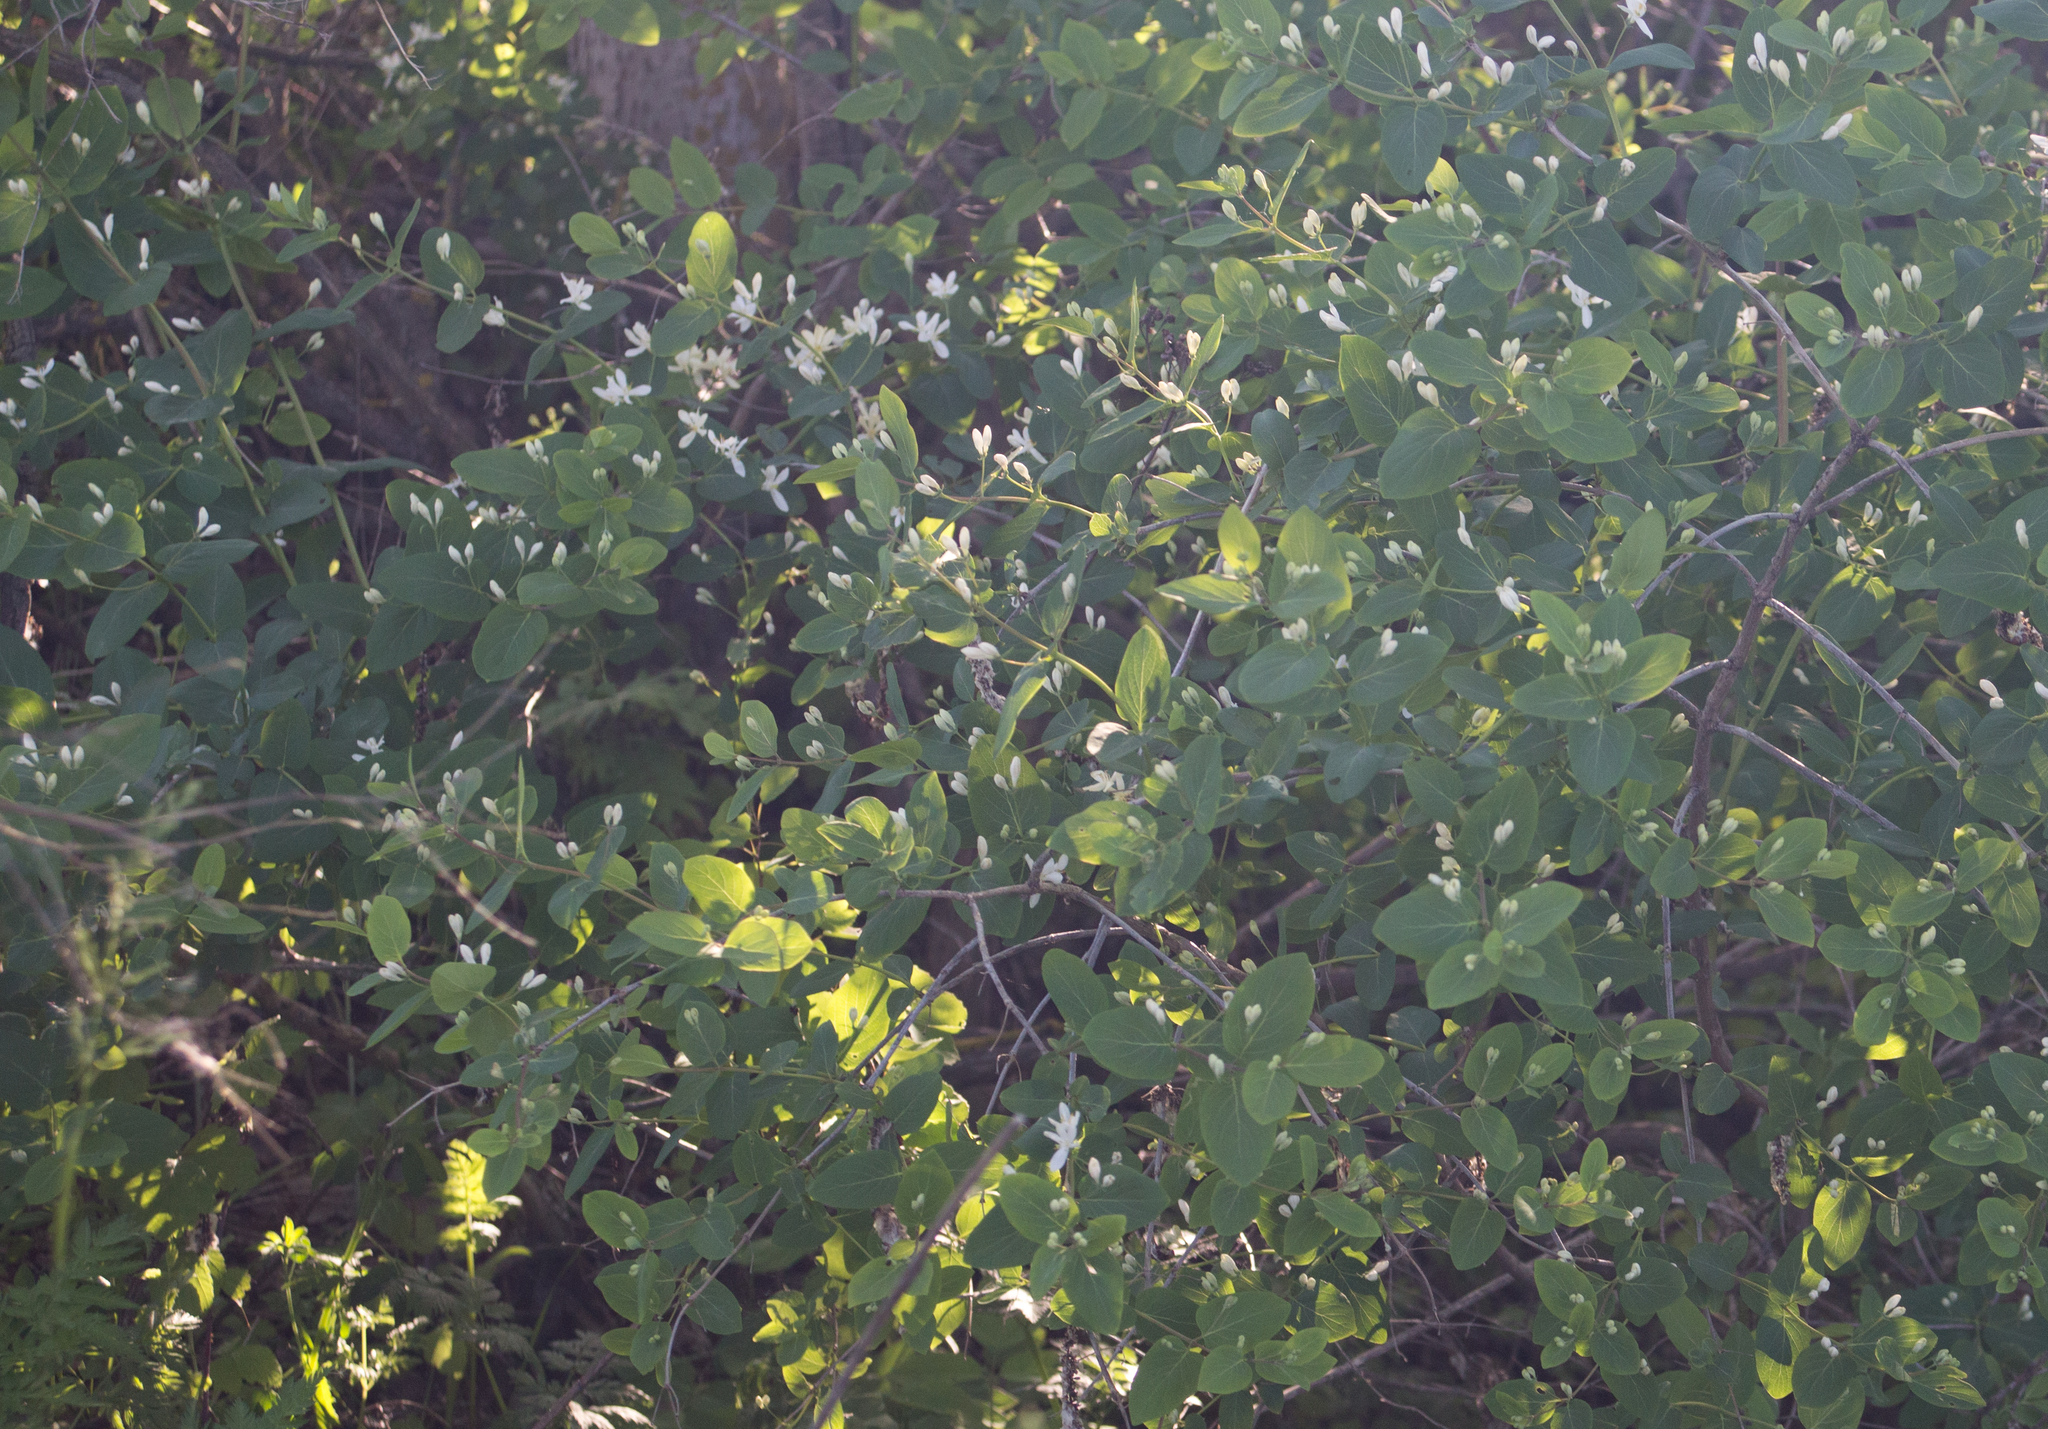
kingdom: Plantae
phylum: Tracheophyta
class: Magnoliopsida
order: Dipsacales
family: Caprifoliaceae
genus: Lonicera
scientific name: Lonicera tatarica
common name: Tatarian honeysuckle
